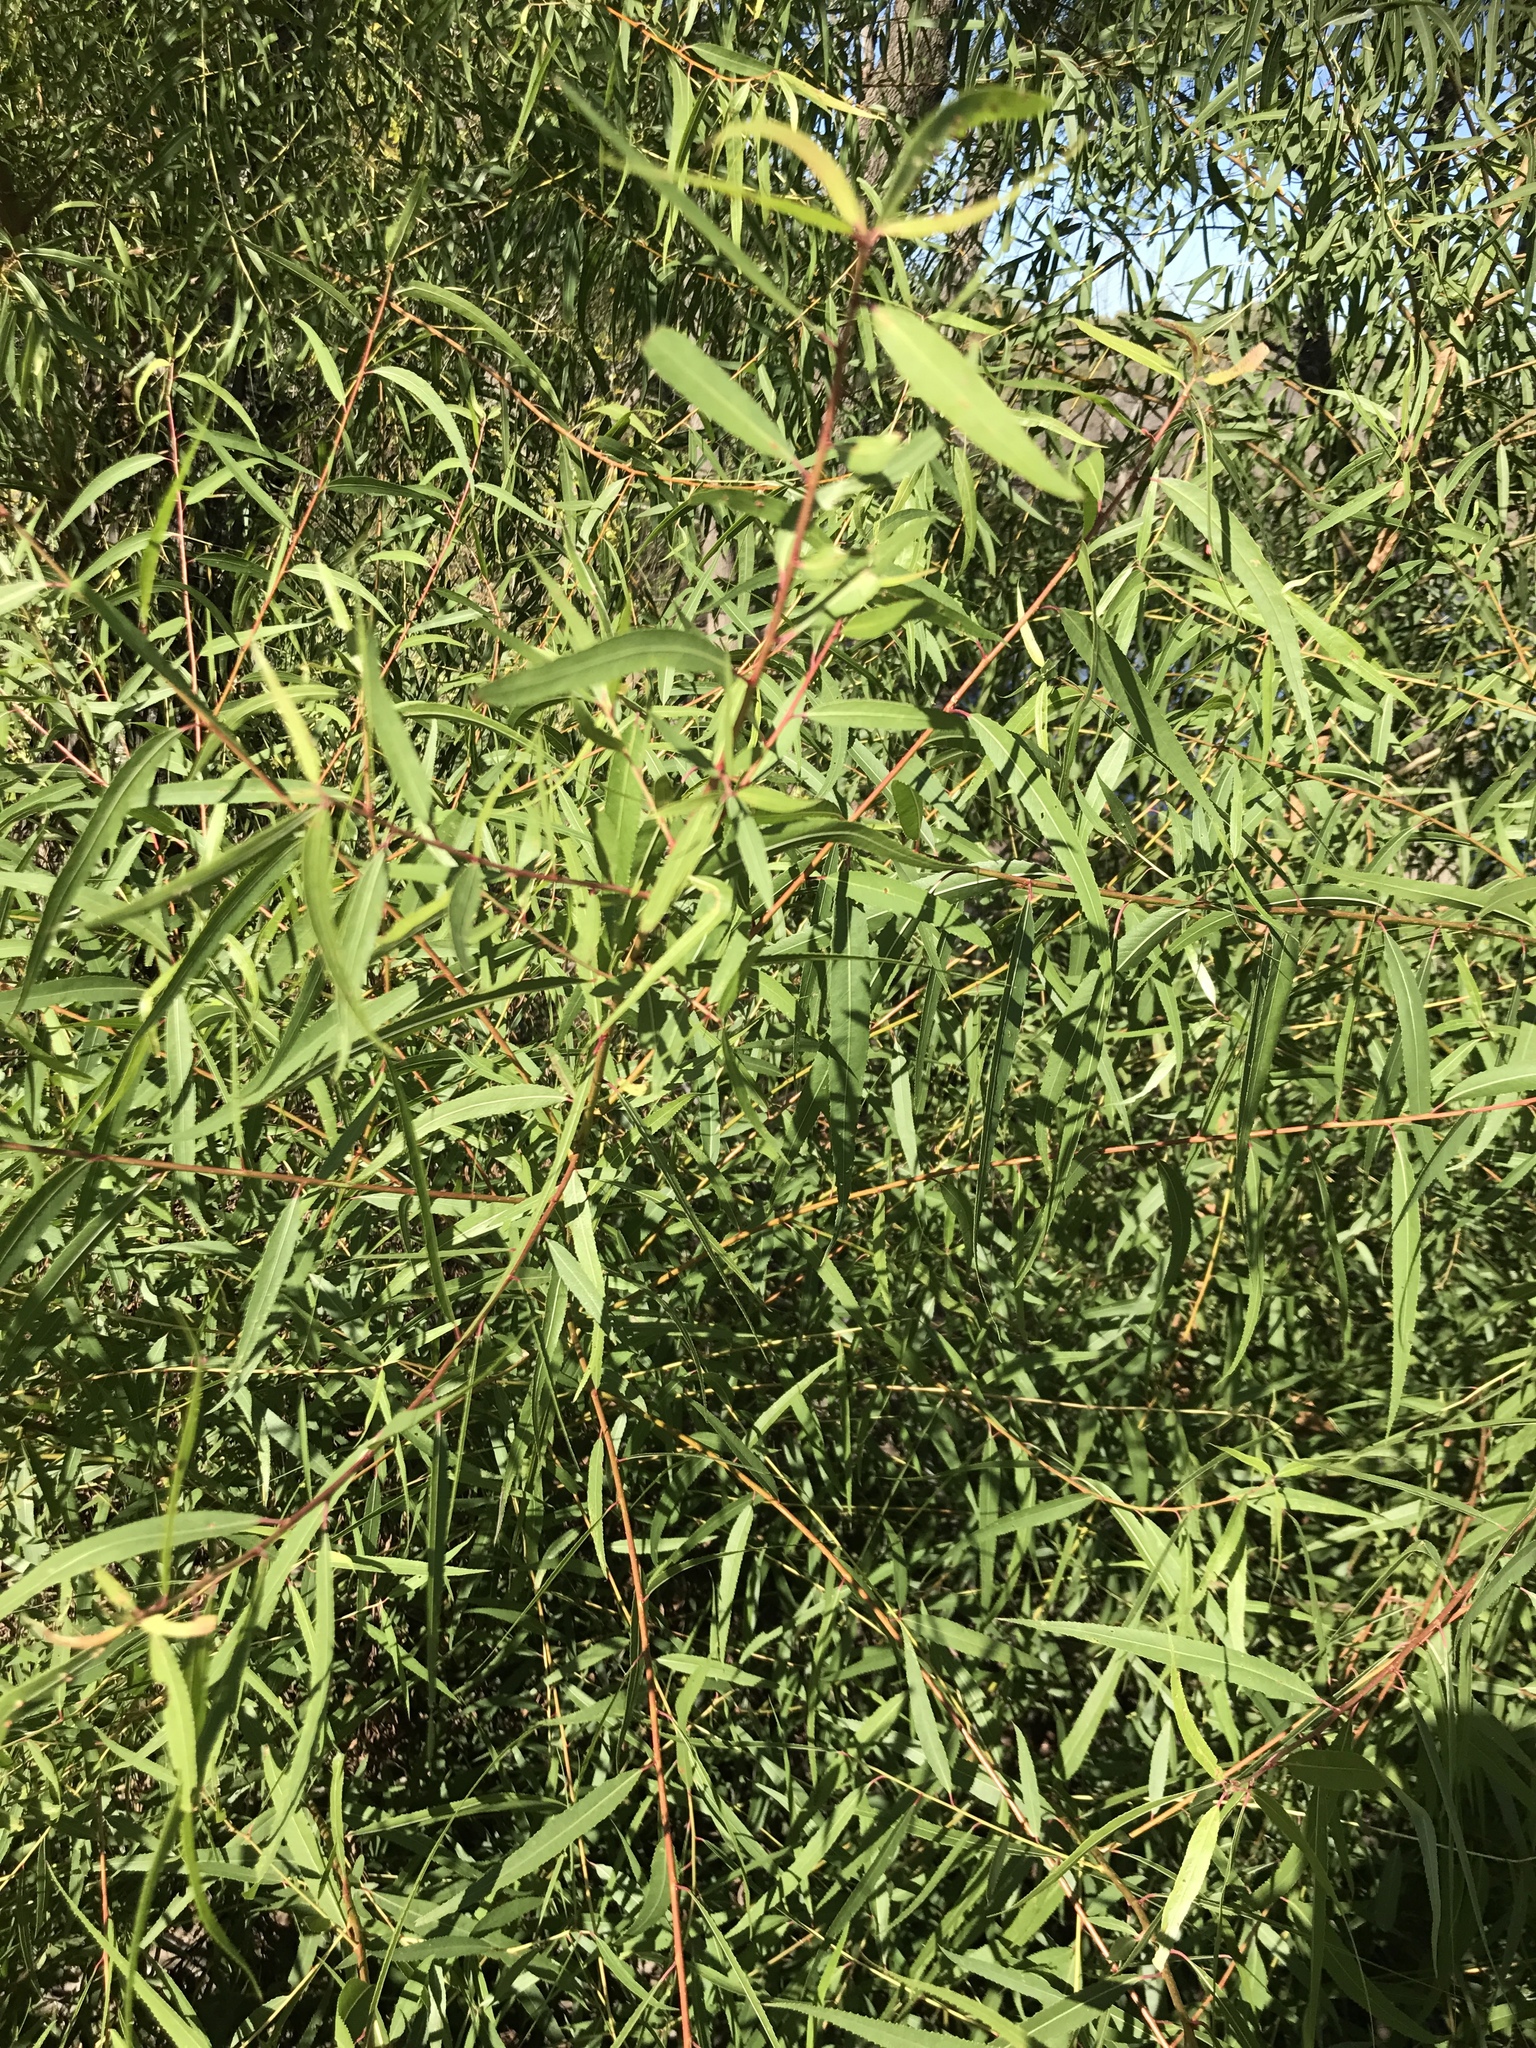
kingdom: Plantae
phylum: Tracheophyta
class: Magnoliopsida
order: Malpighiales
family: Salicaceae
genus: Salix
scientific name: Salix nigra
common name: Black willow
